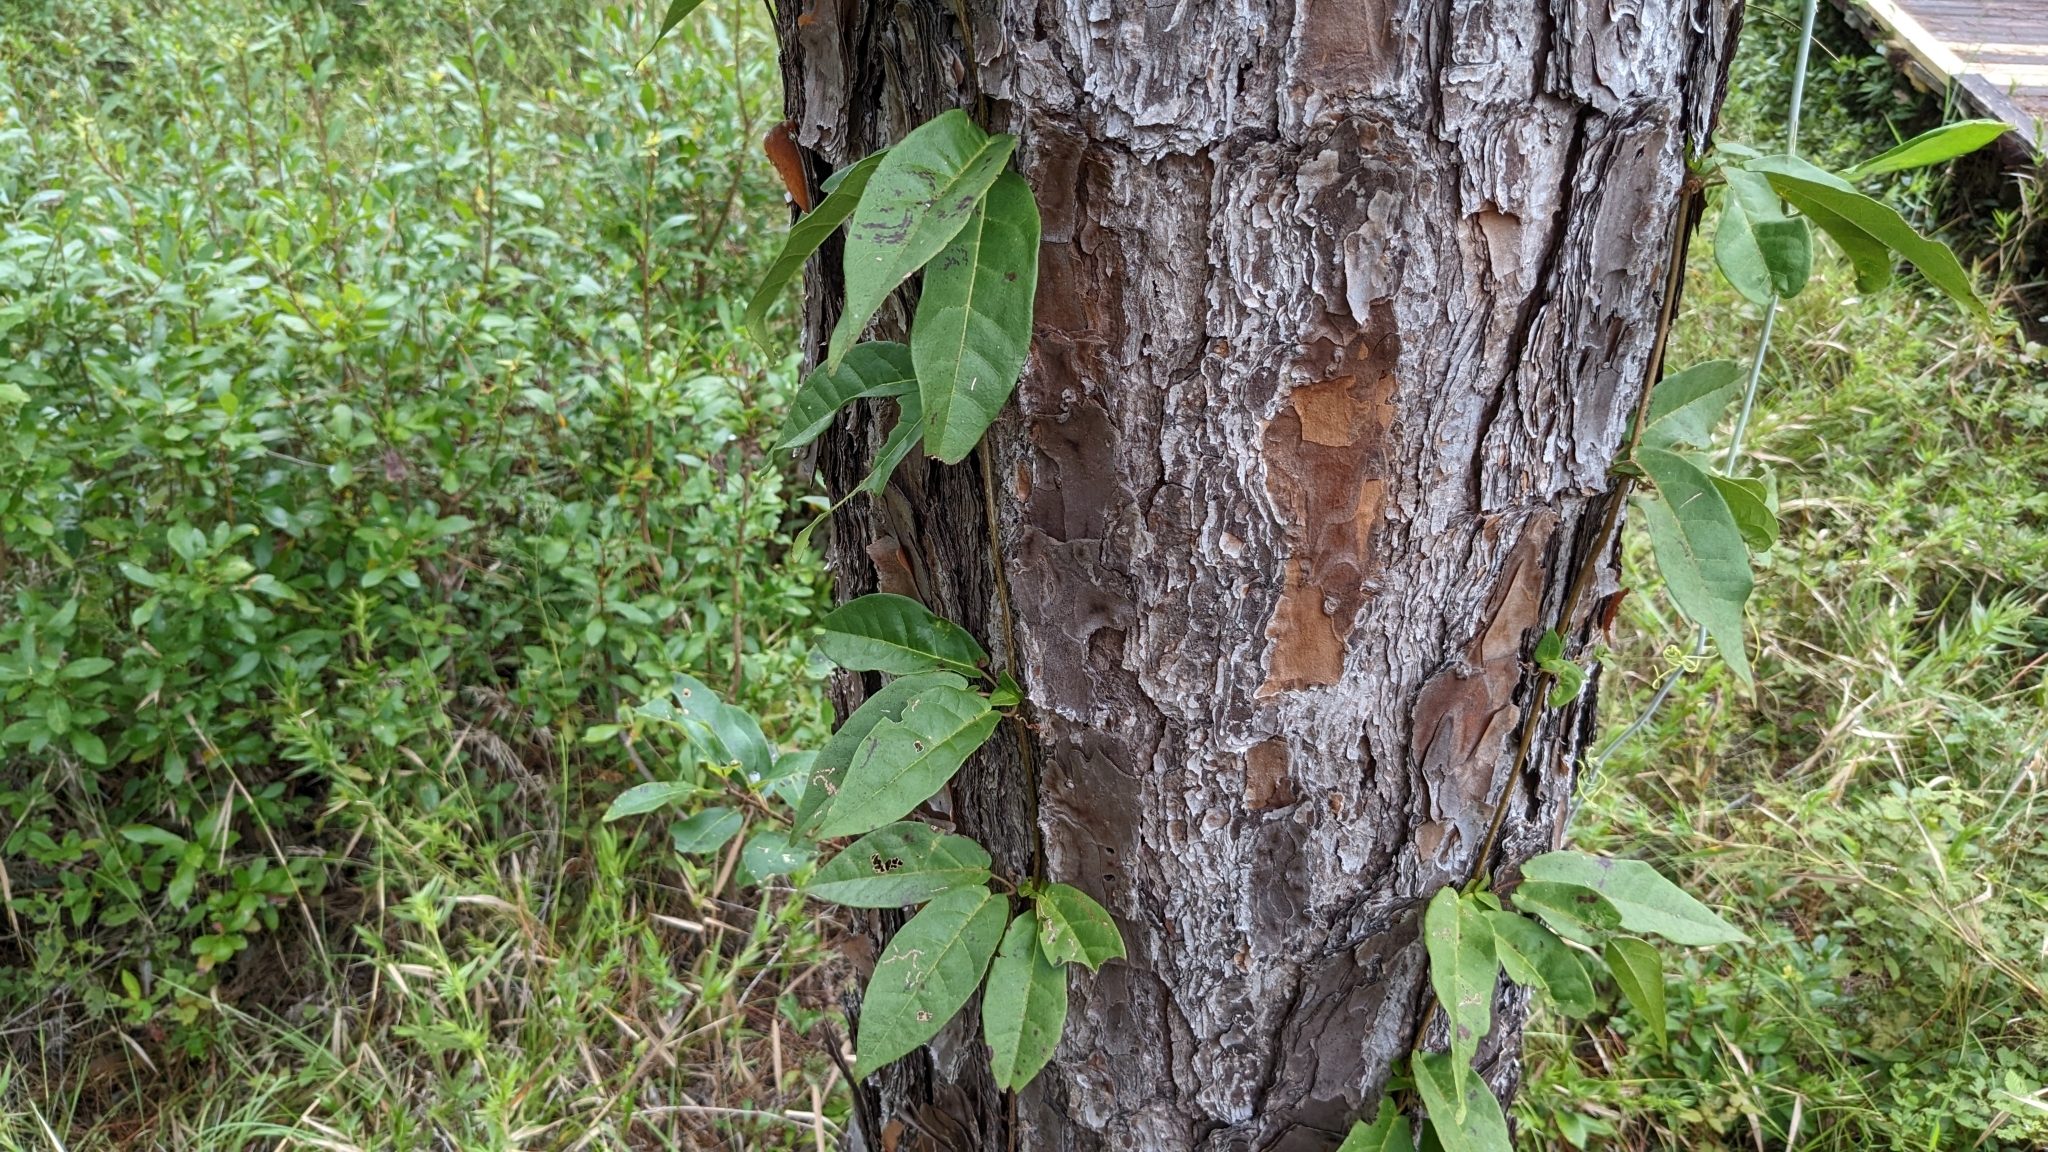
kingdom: Plantae
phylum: Tracheophyta
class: Magnoliopsida
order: Lamiales
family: Bignoniaceae
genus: Bignonia
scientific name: Bignonia capreolata
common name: Crossvine
